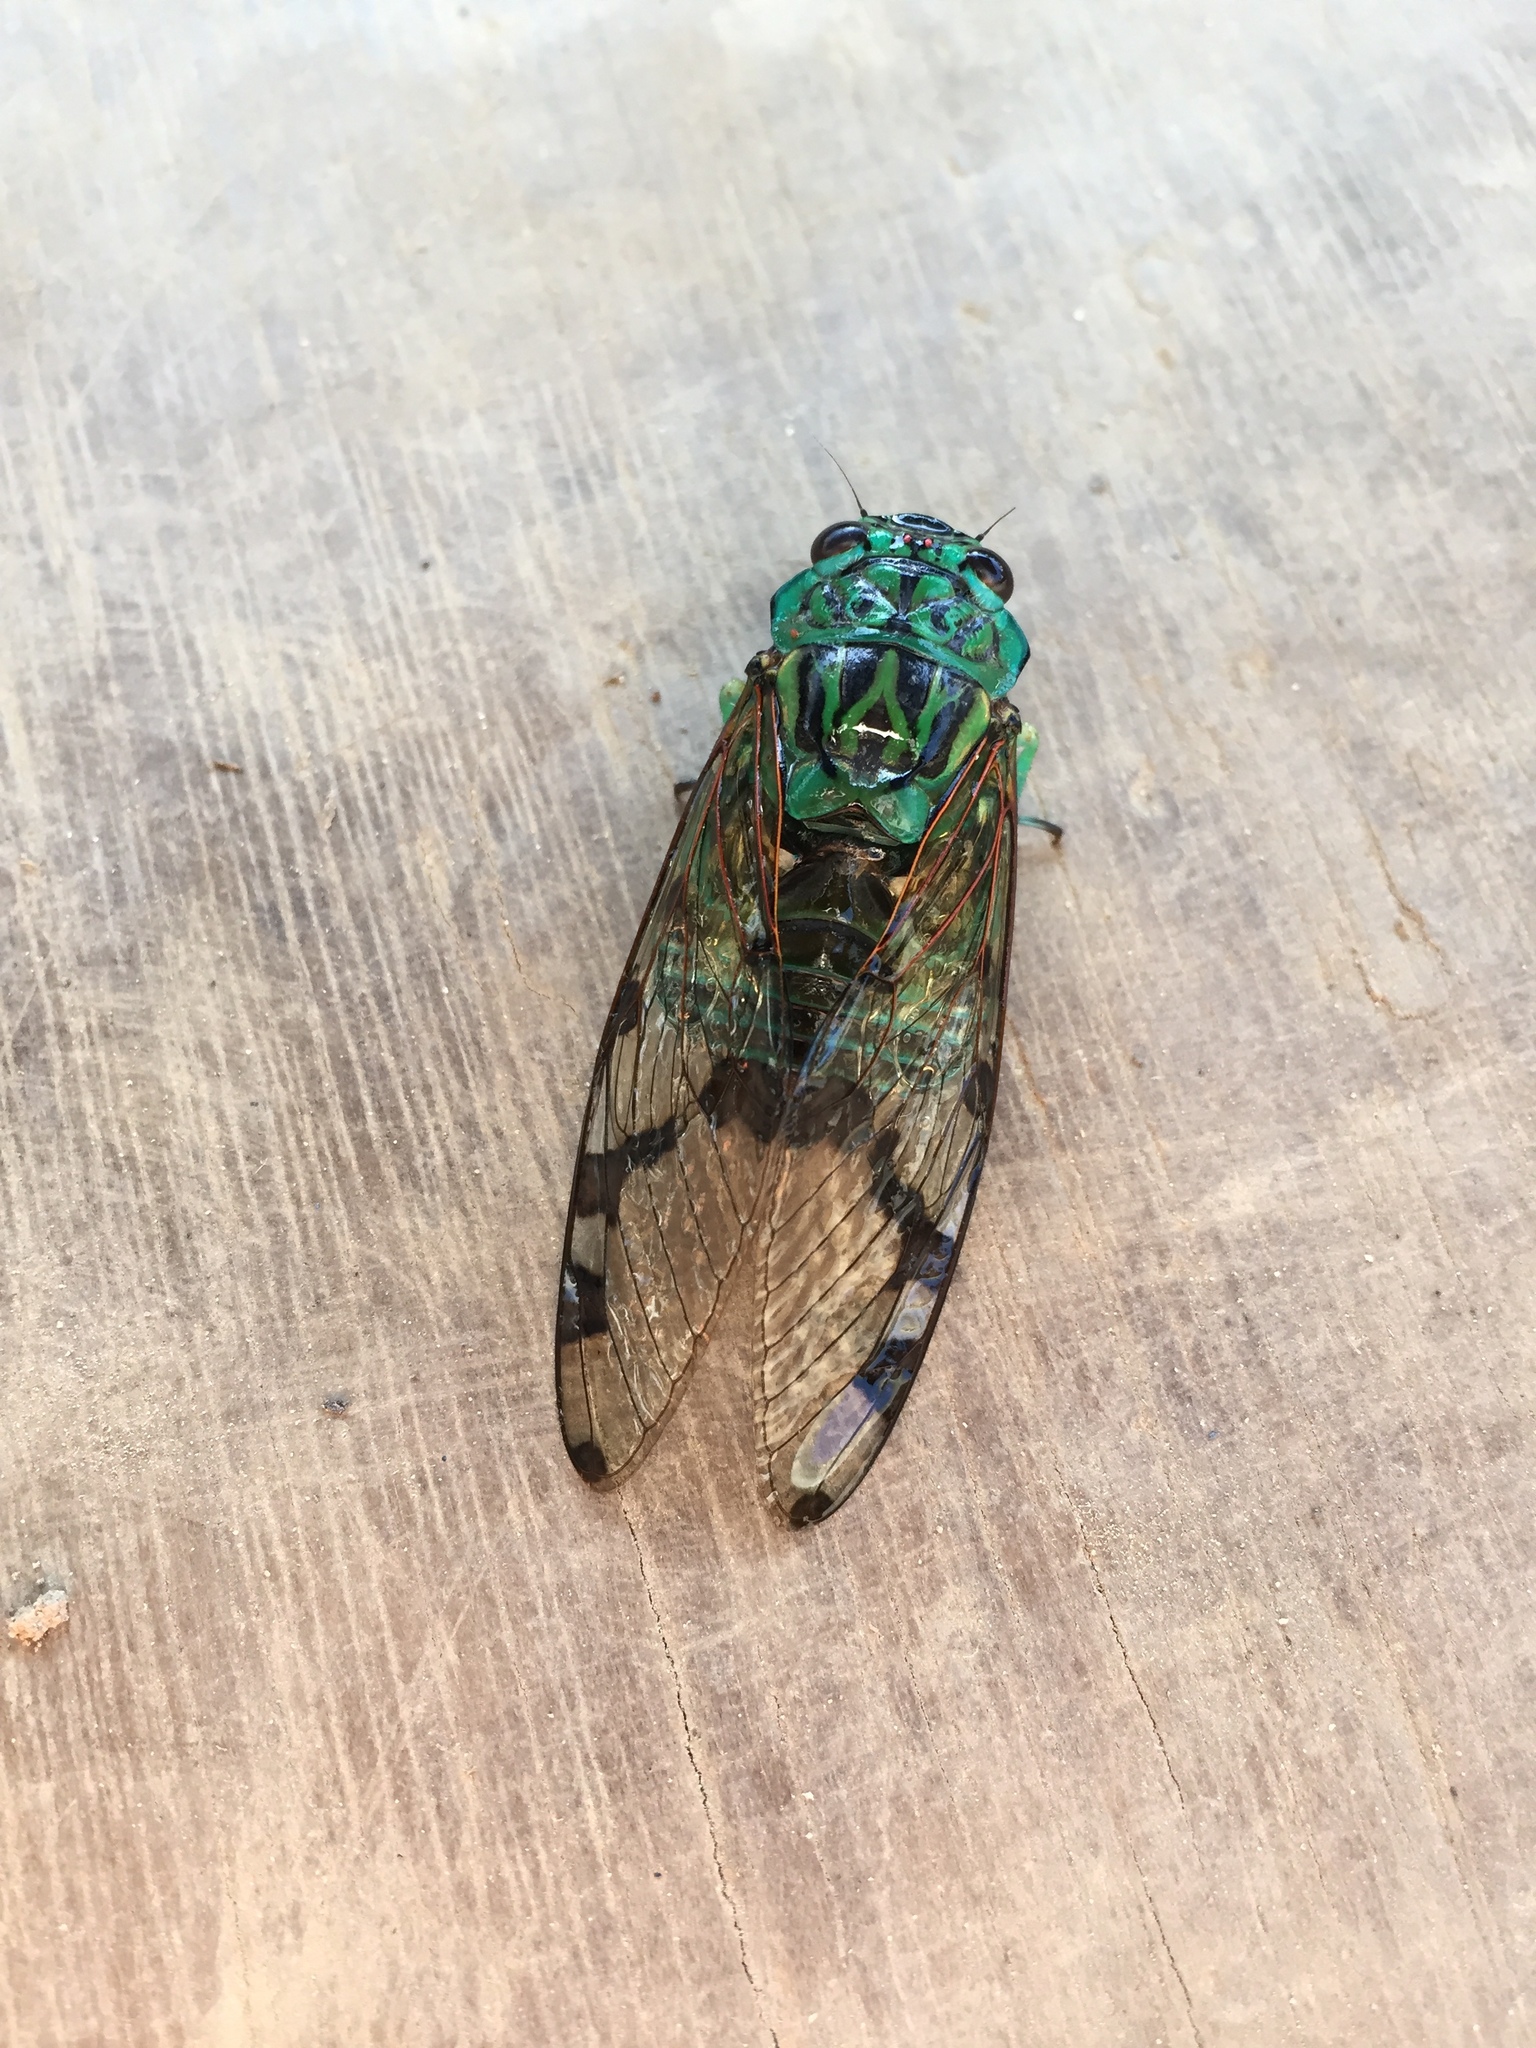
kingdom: Animalia
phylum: Arthropoda
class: Insecta
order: Hemiptera
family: Cicadidae
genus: Zammara
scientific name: Zammara smaragdula
